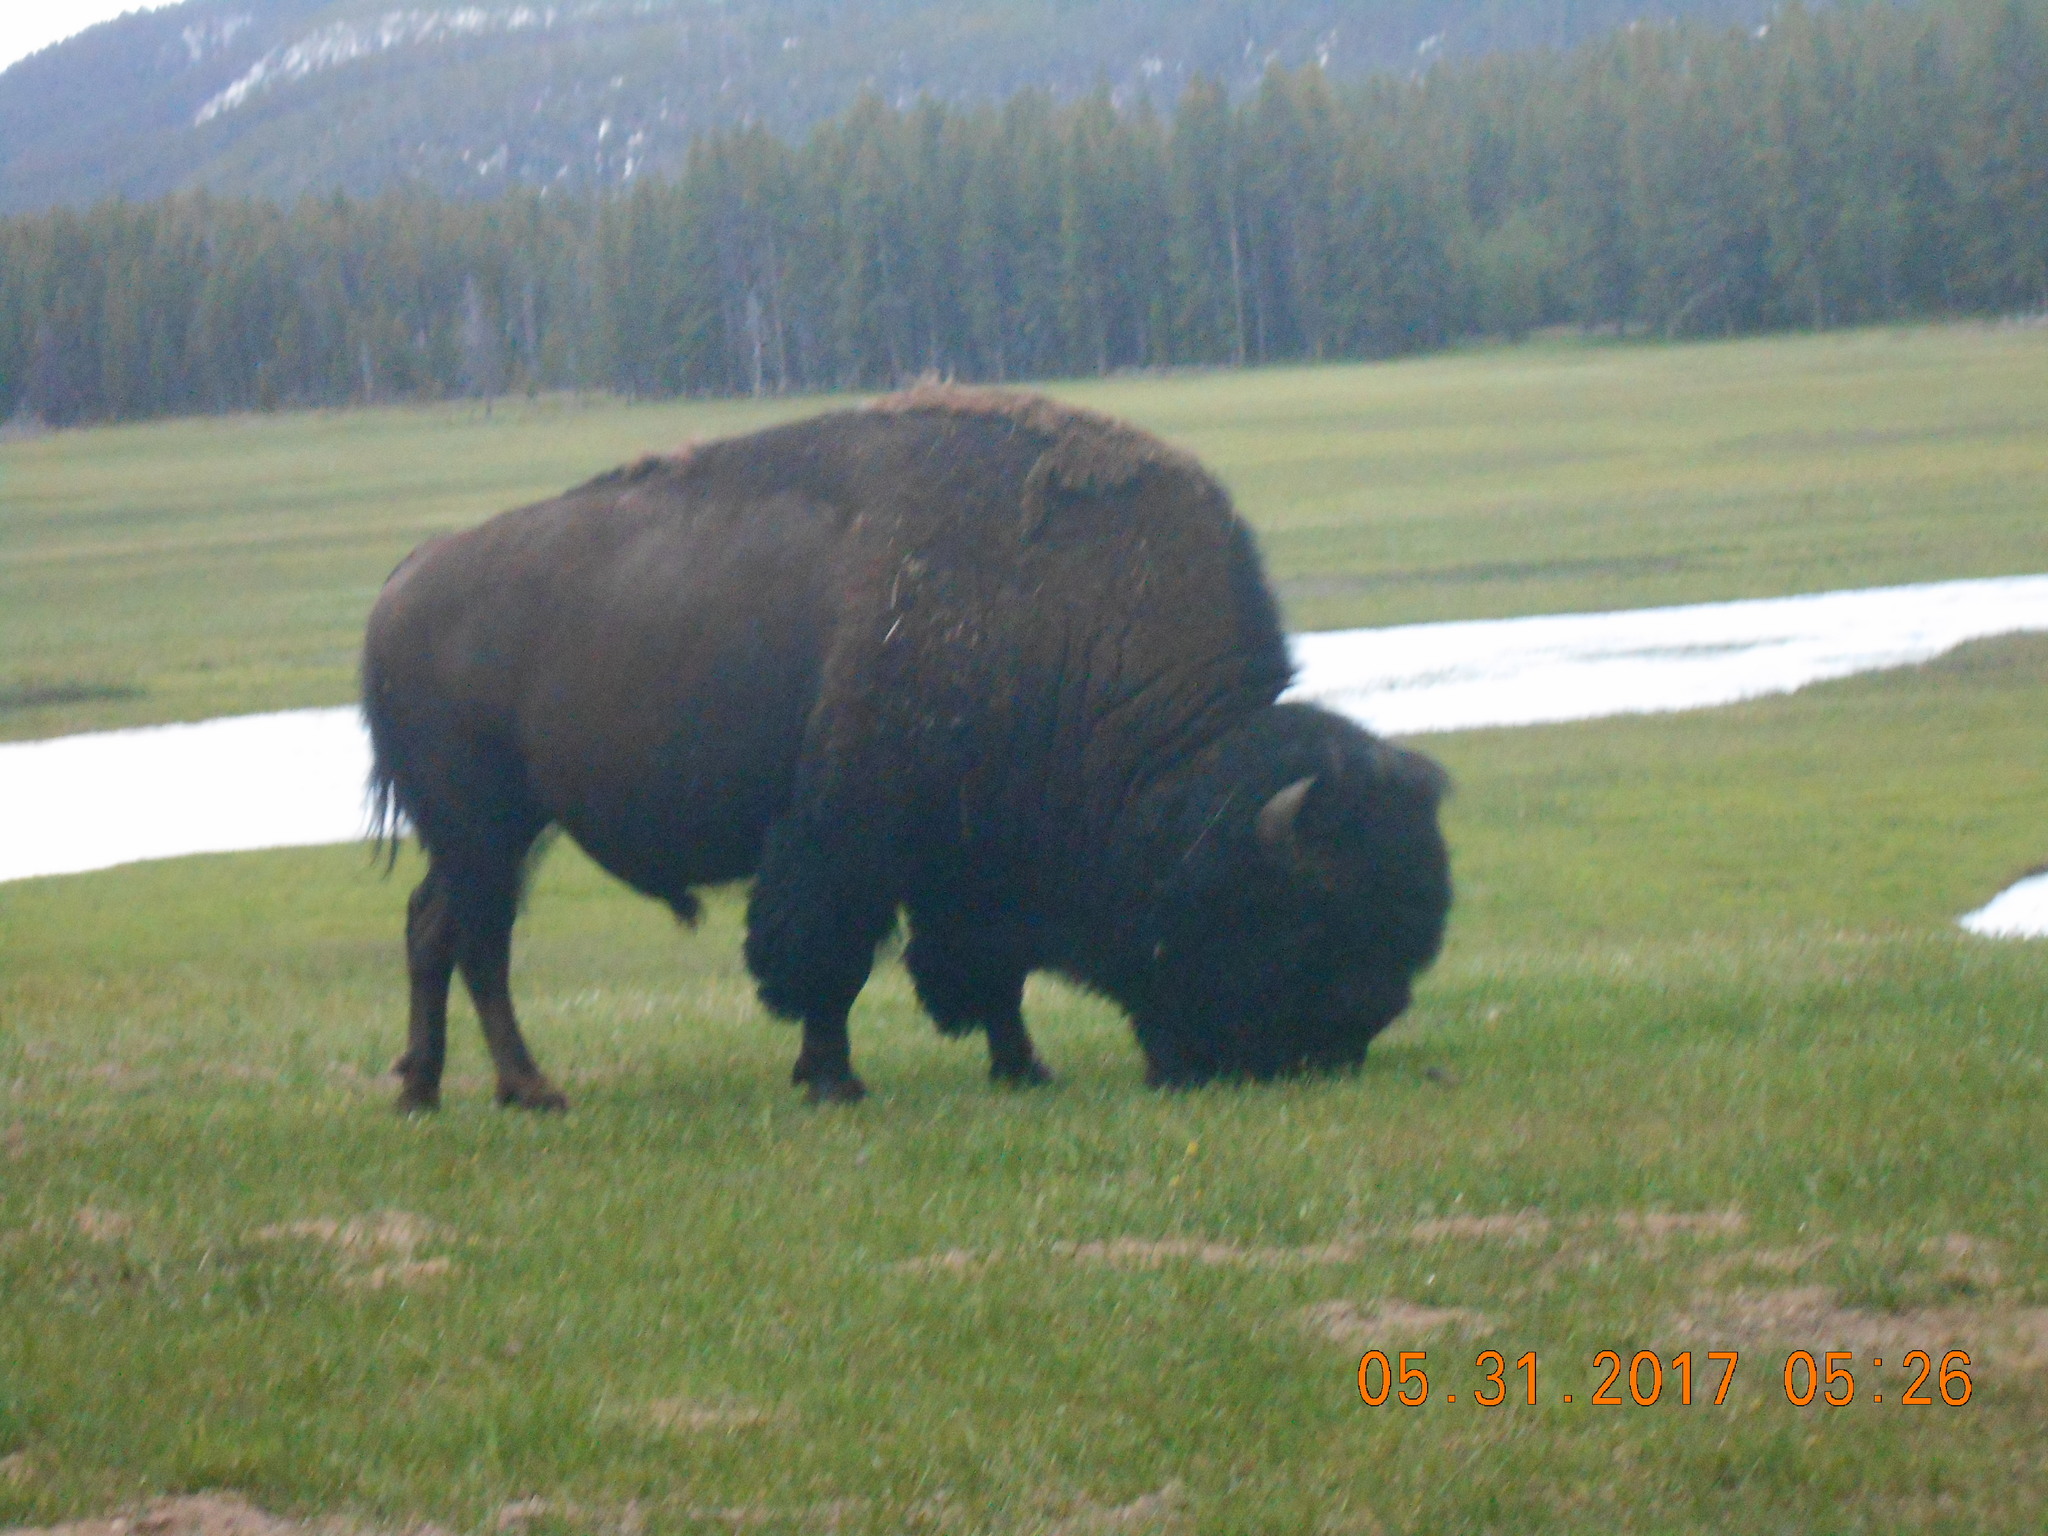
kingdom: Animalia
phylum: Chordata
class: Mammalia
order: Artiodactyla
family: Bovidae
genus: Bison
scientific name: Bison bison
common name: American bison
